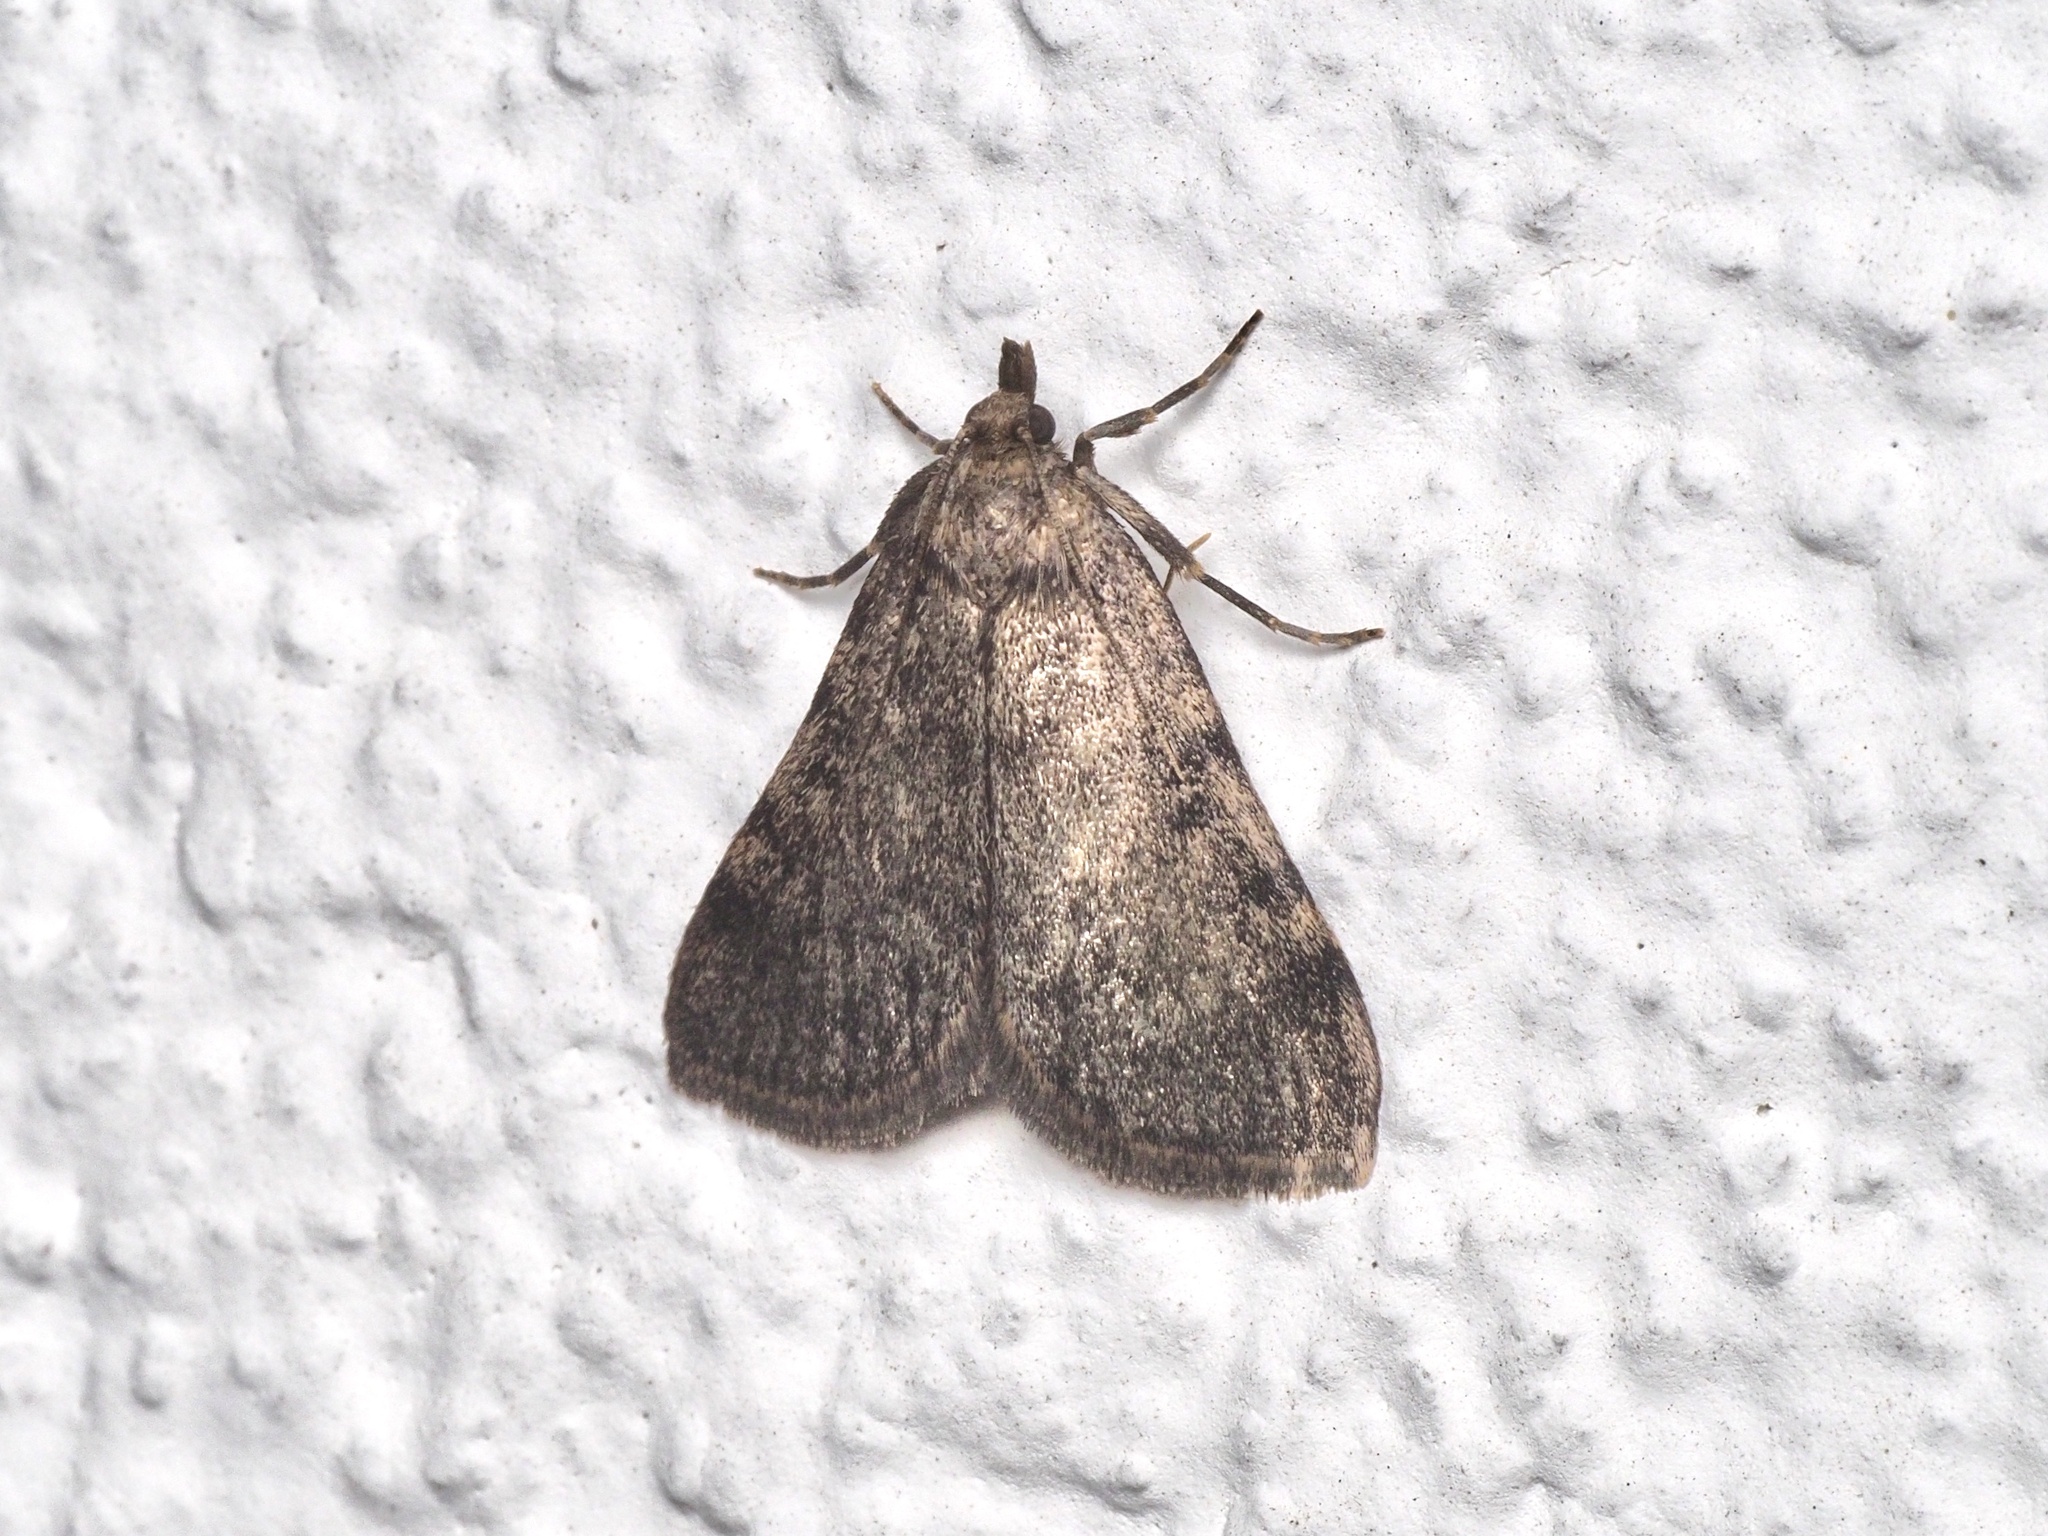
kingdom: Animalia
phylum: Arthropoda
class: Insecta
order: Lepidoptera
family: Pyralidae
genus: Aglossa
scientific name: Aglossa pinguinalis
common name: Large tabby
